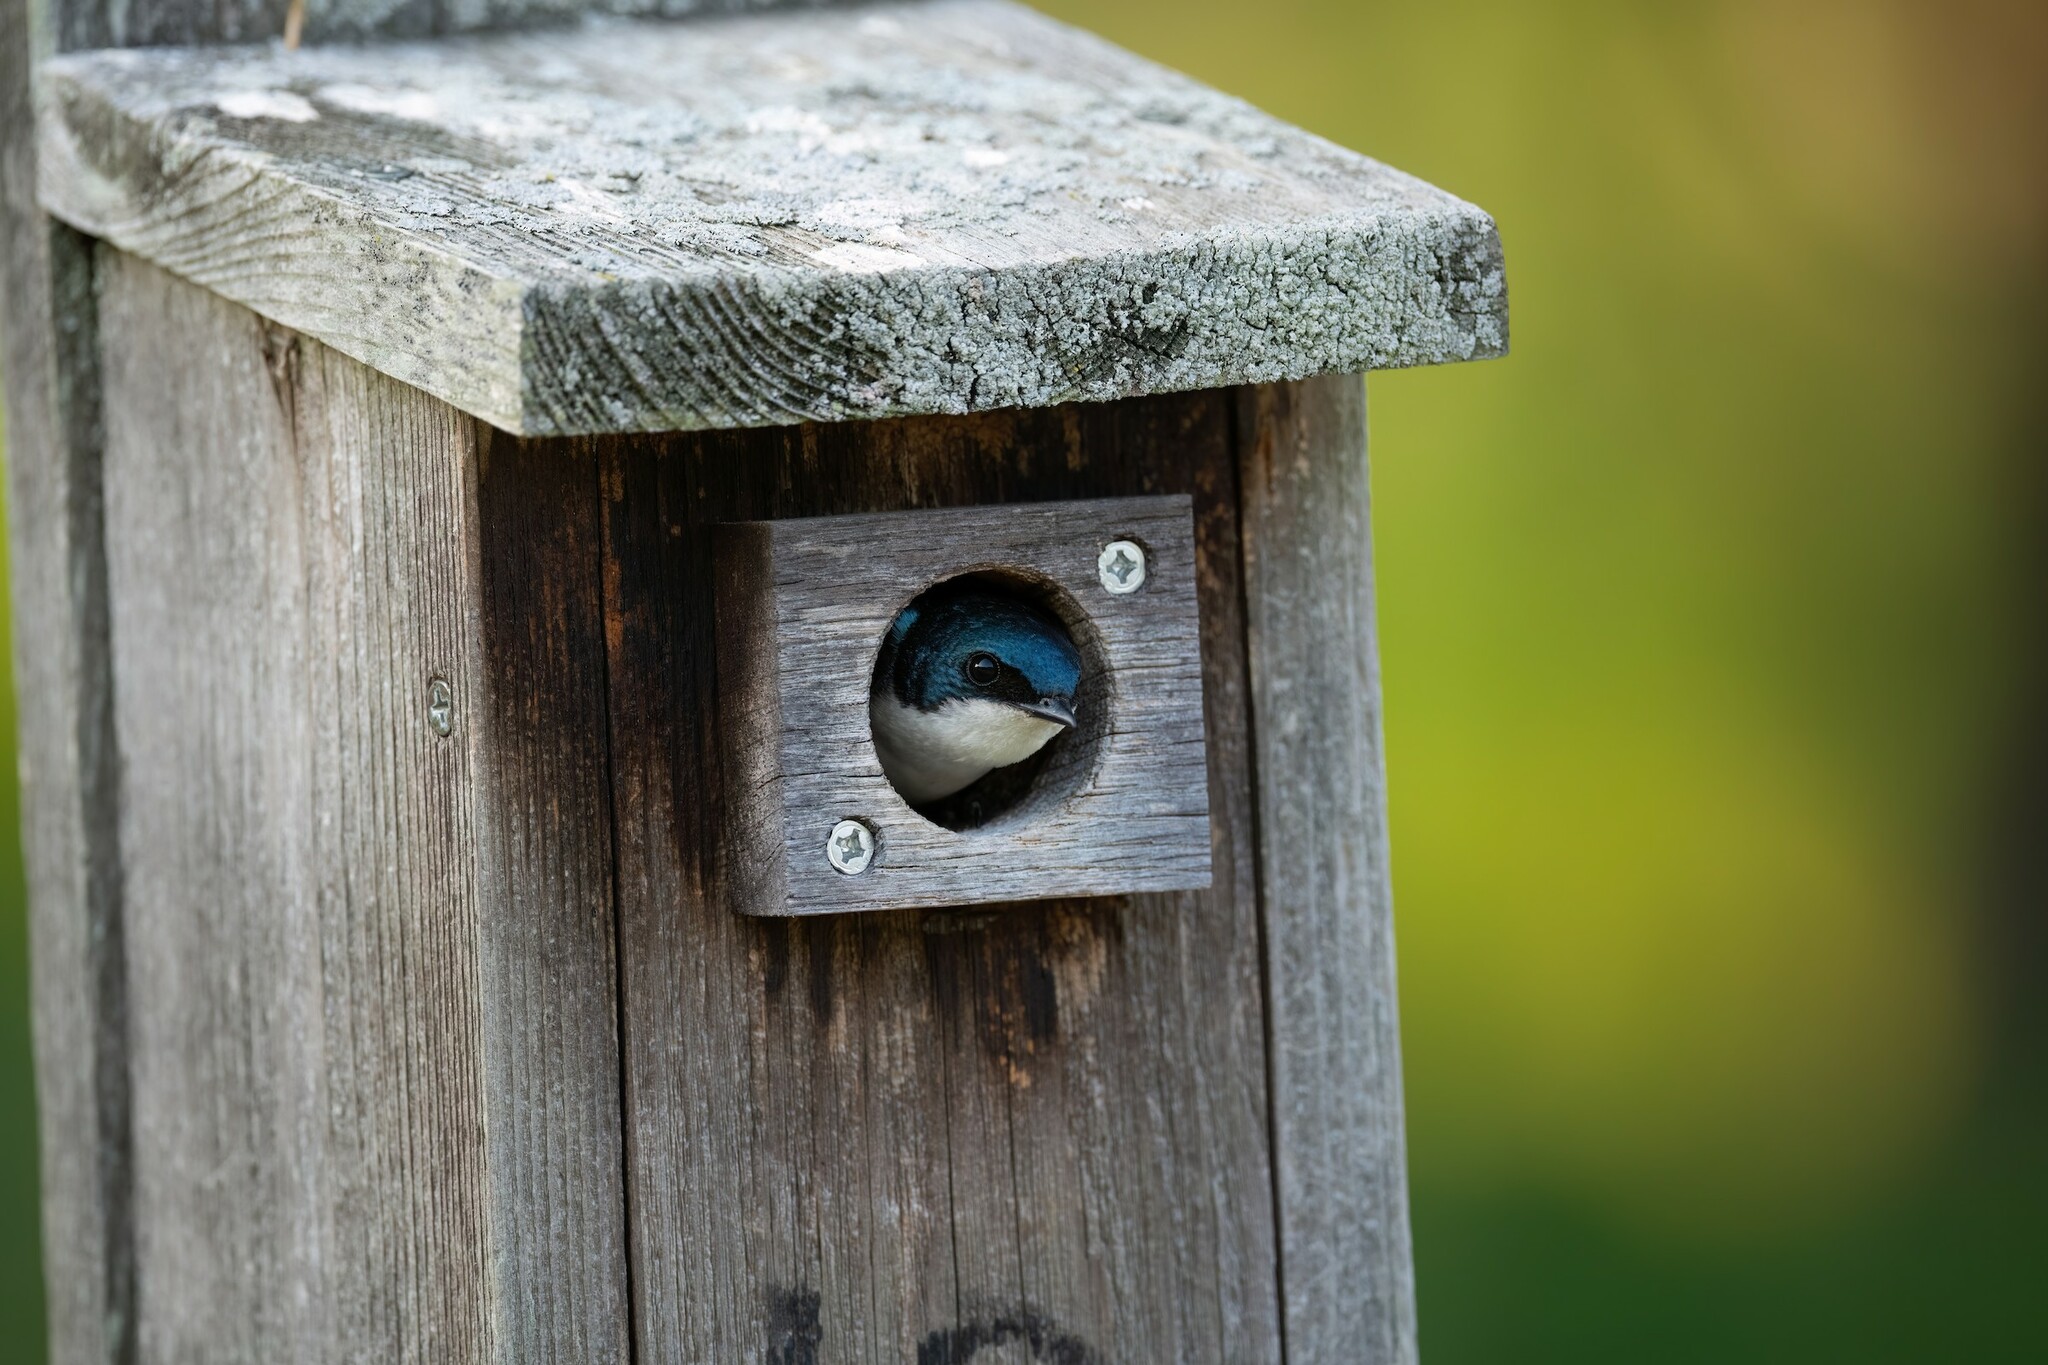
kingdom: Animalia
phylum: Chordata
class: Aves
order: Passeriformes
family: Hirundinidae
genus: Tachycineta
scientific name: Tachycineta bicolor
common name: Tree swallow
